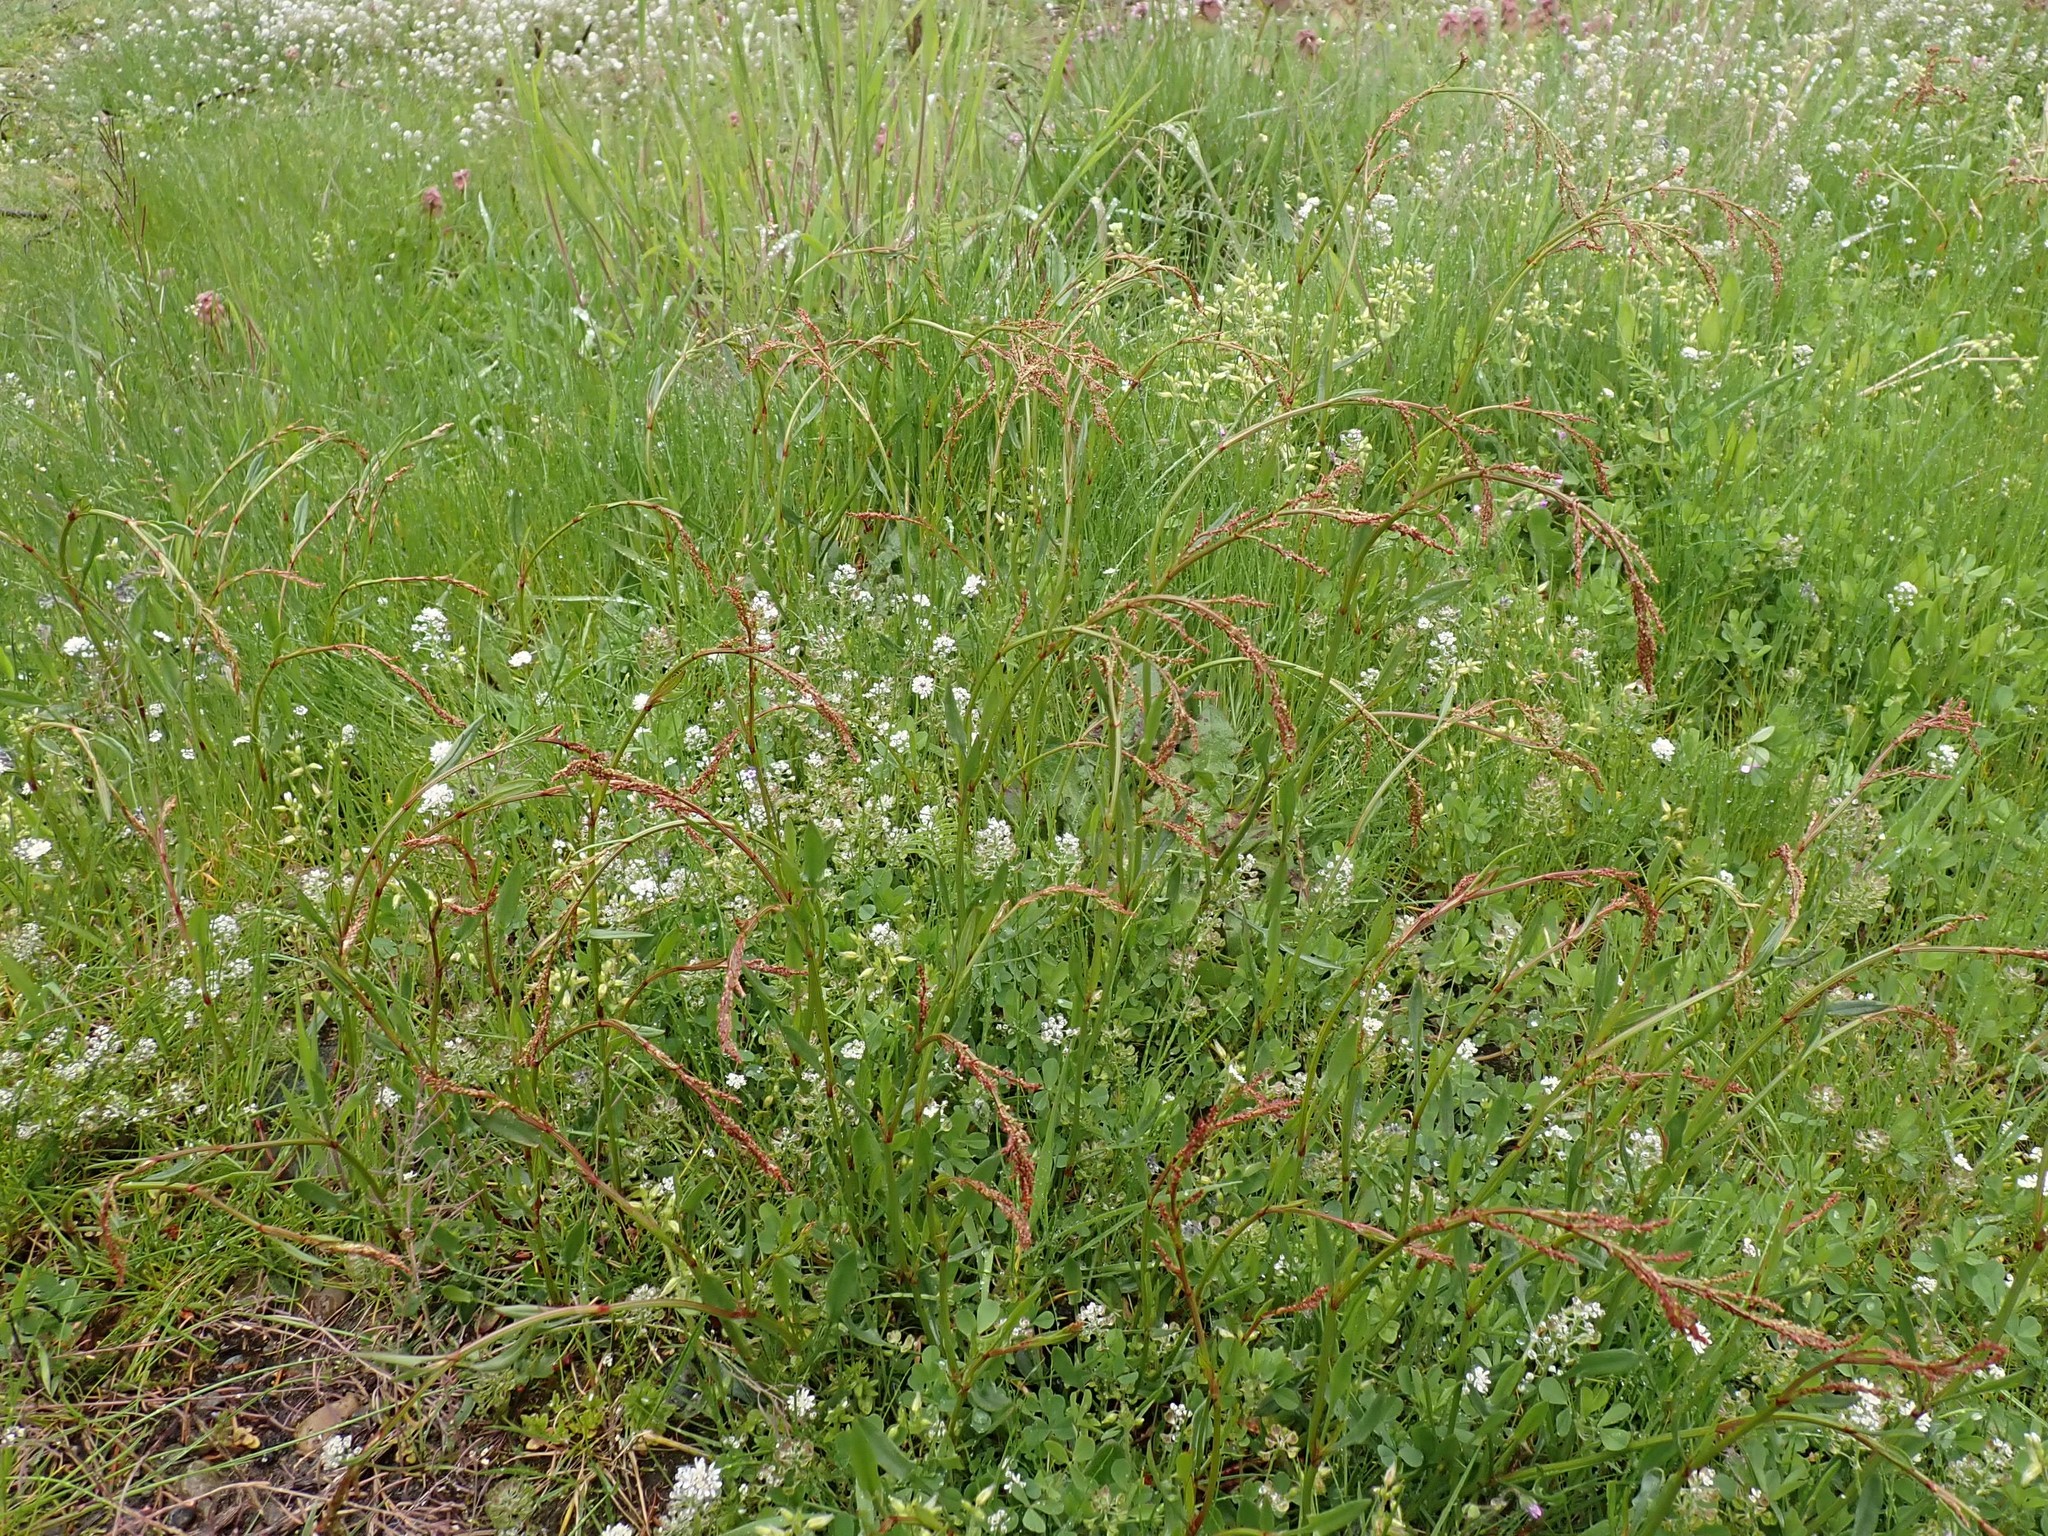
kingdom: Plantae
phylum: Tracheophyta
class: Magnoliopsida
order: Caryophyllales
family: Polygonaceae
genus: Rumex
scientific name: Rumex acetosella
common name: Common sheep sorrel
